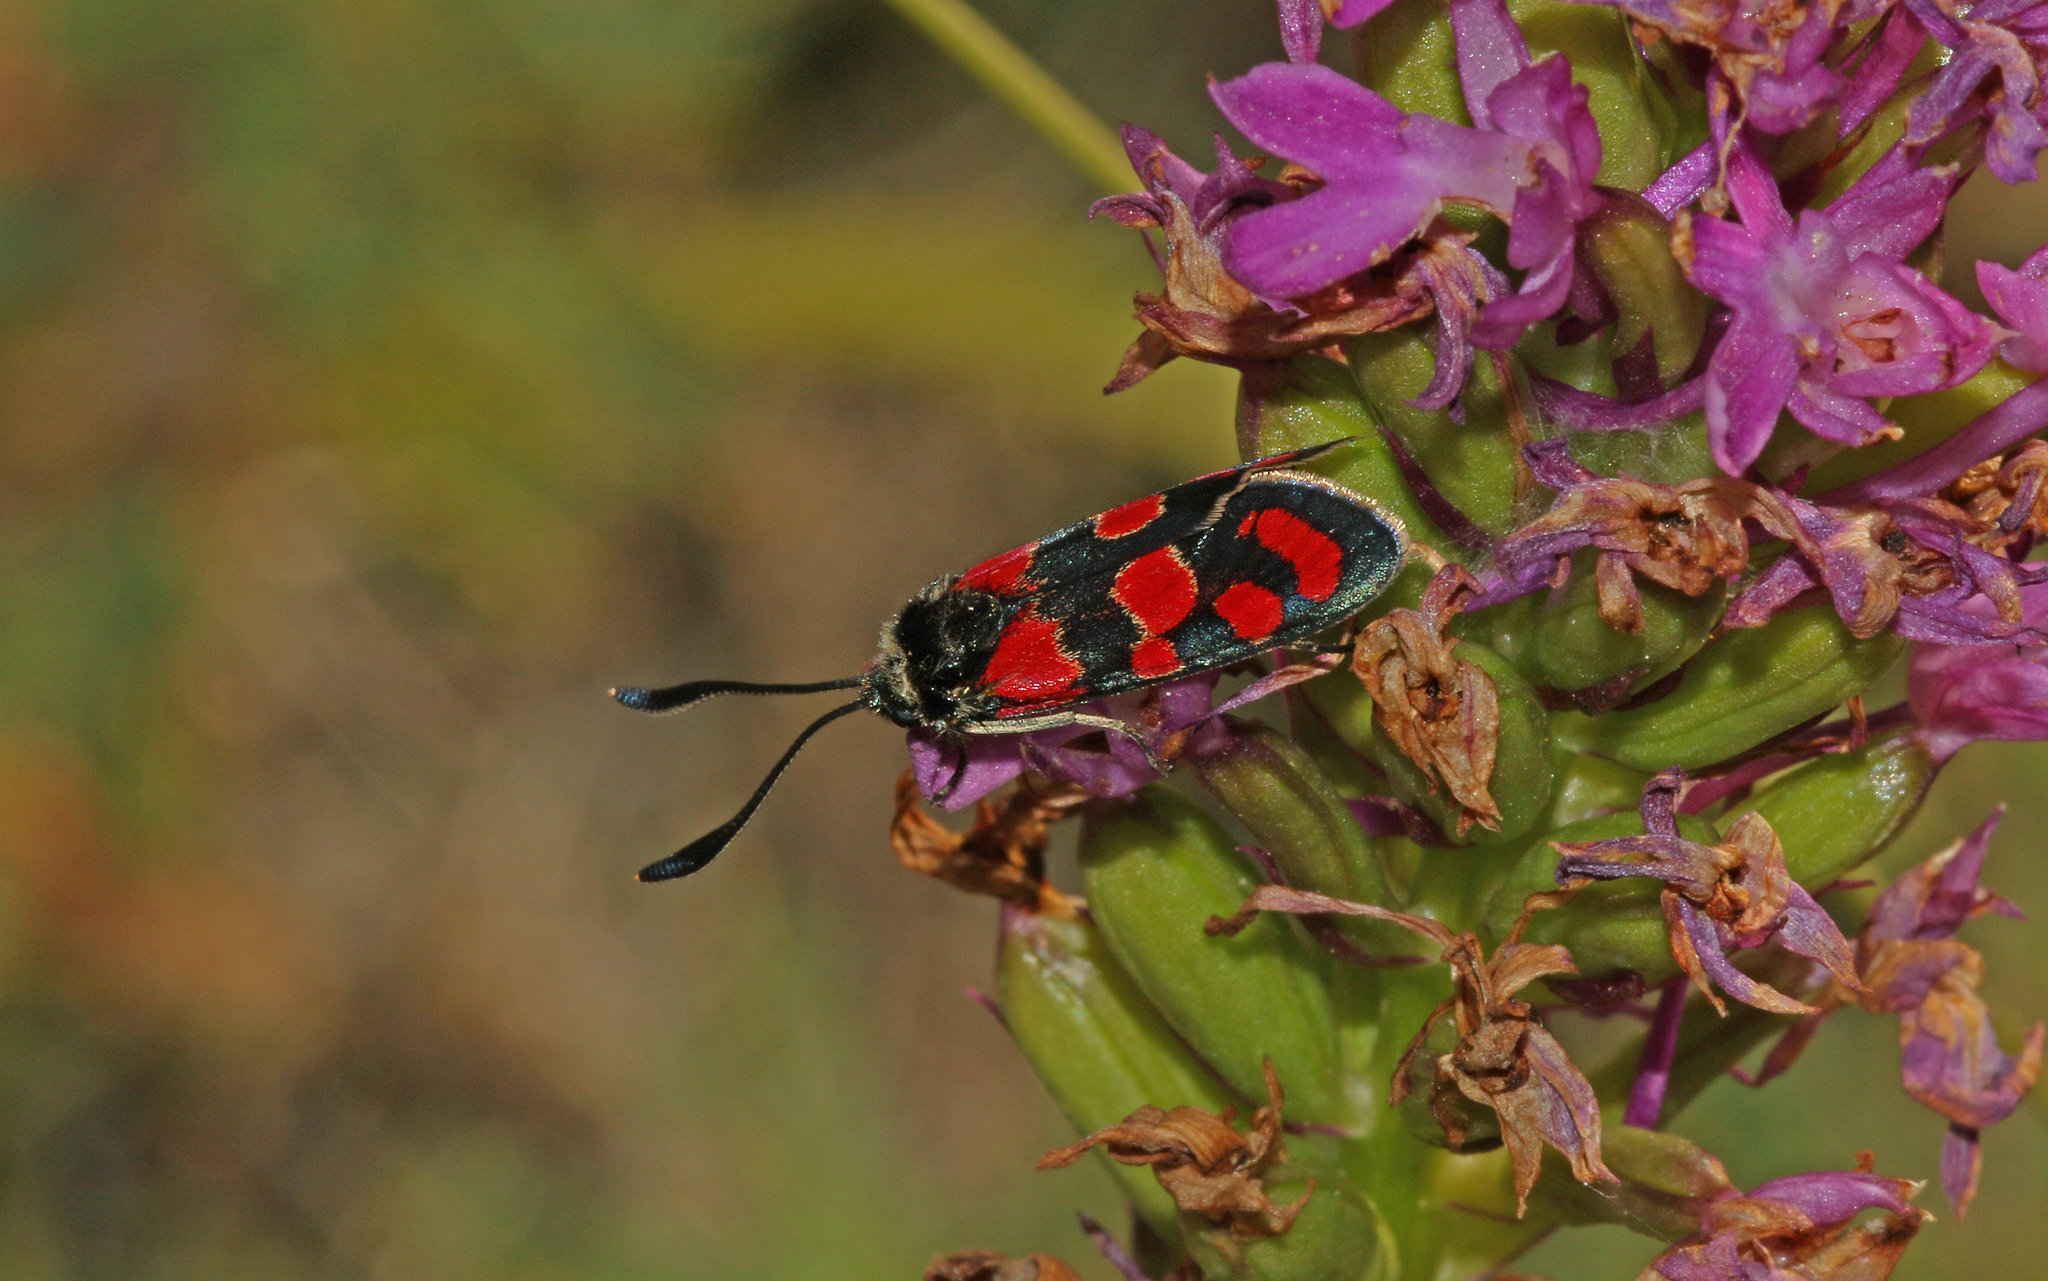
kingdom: Animalia
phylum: Arthropoda
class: Insecta
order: Lepidoptera
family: Zygaenidae
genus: Zygaena
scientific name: Zygaena carniolica
